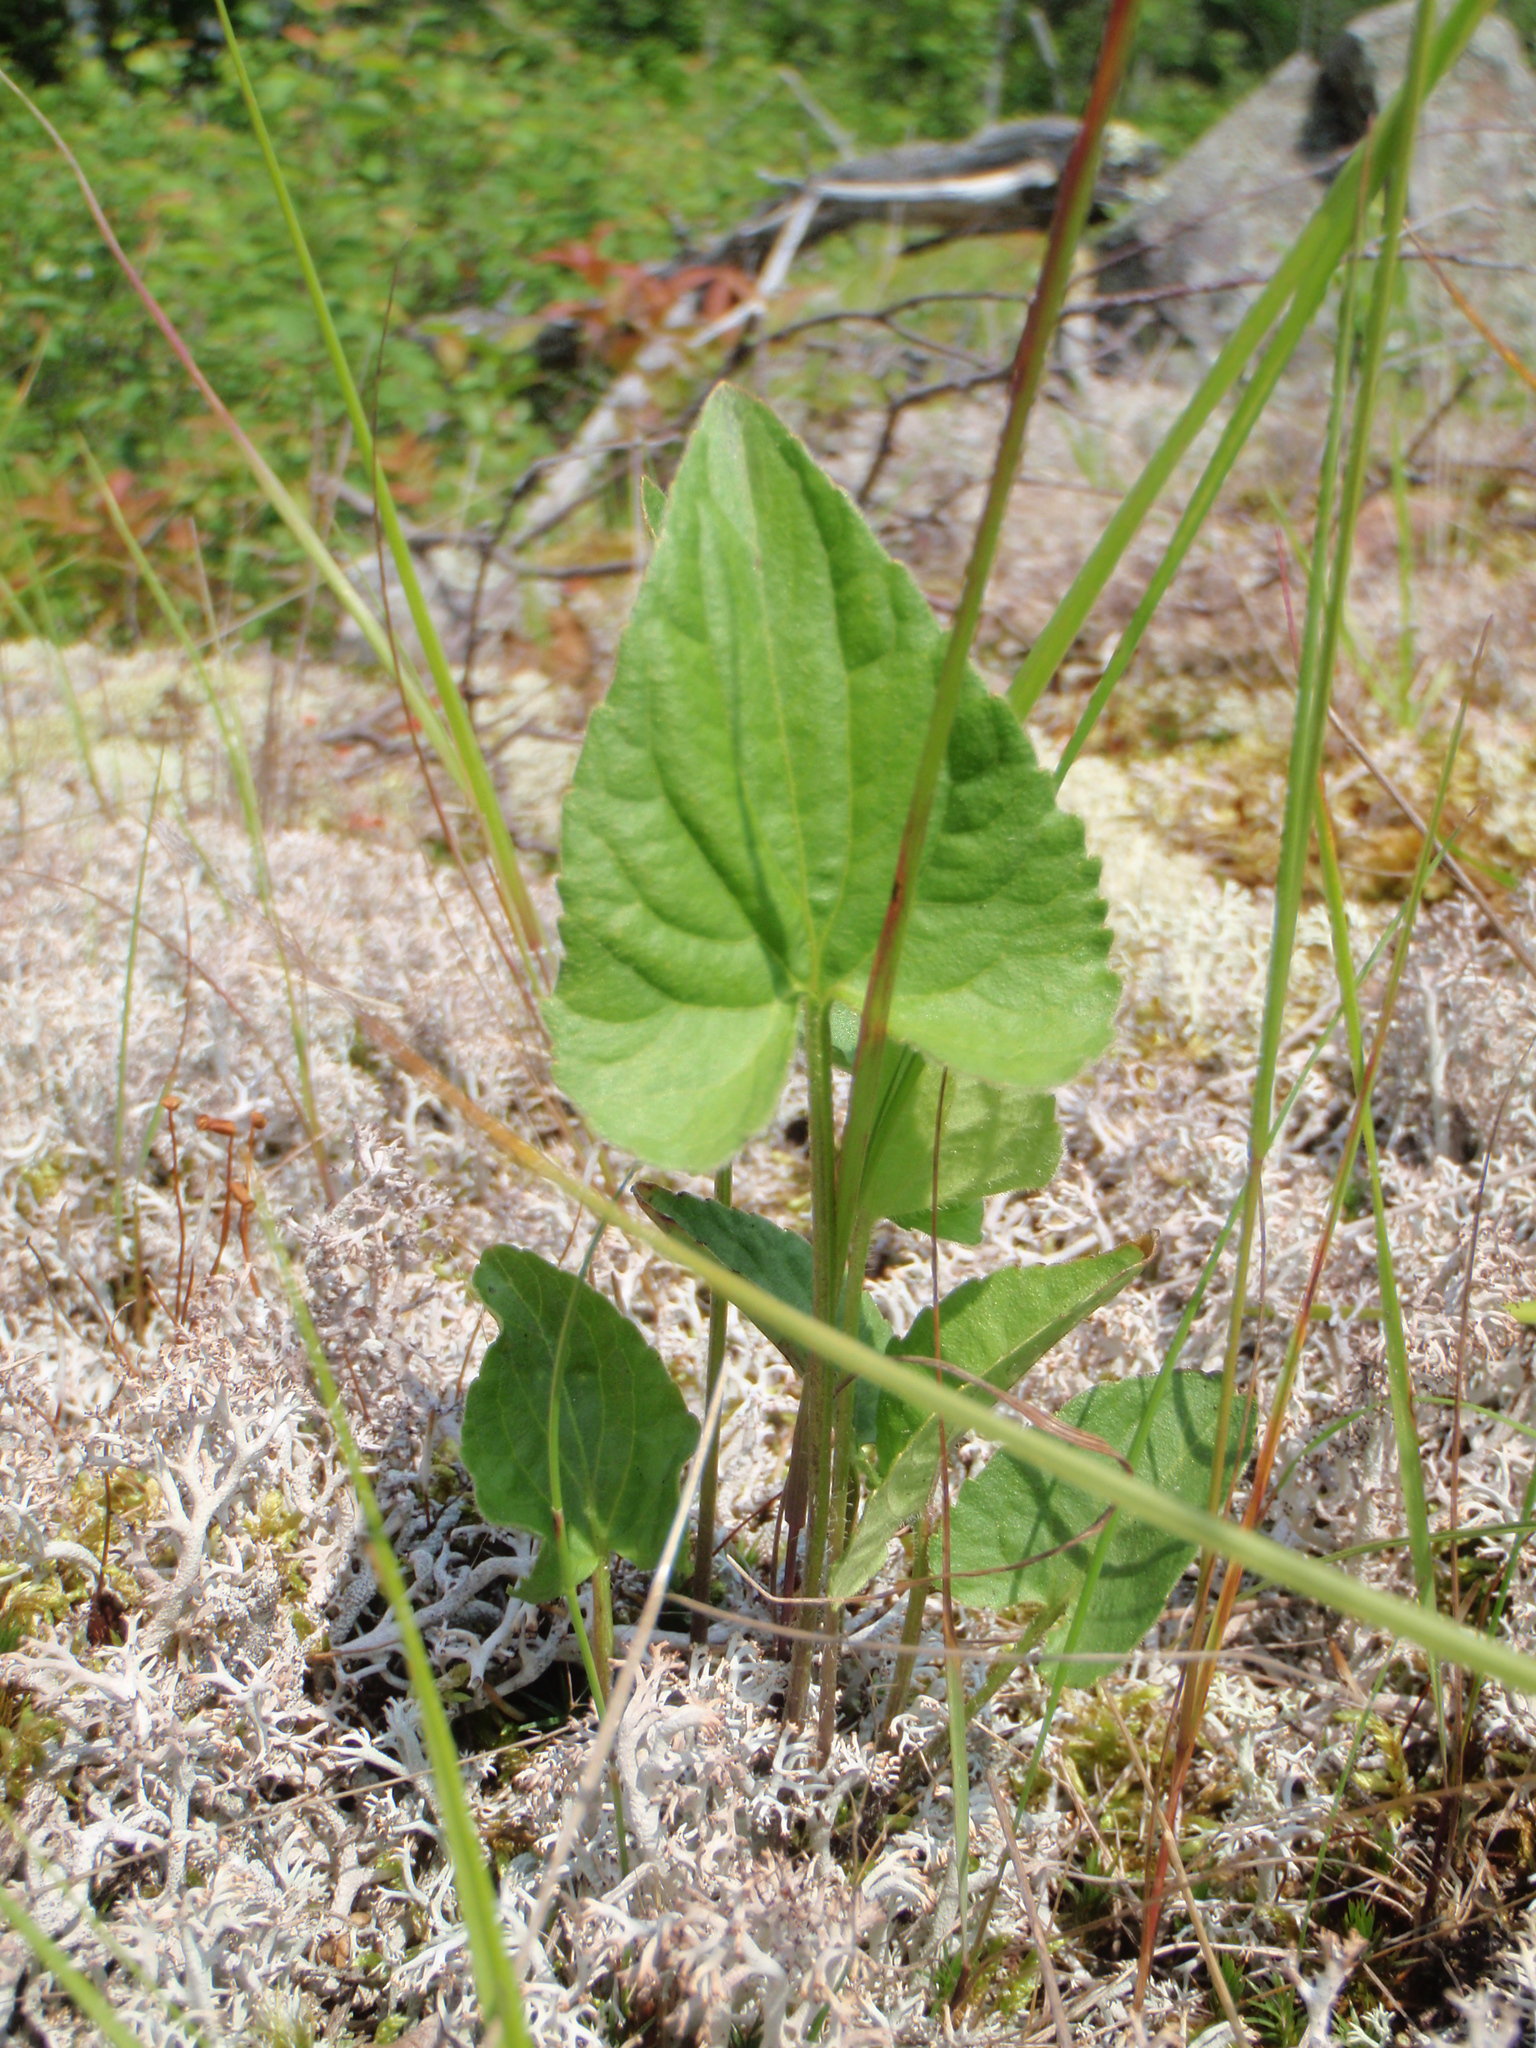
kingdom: Plantae
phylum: Tracheophyta
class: Magnoliopsida
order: Malpighiales
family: Violaceae
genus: Viola
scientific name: Viola novae-angliae
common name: New england blue violet
